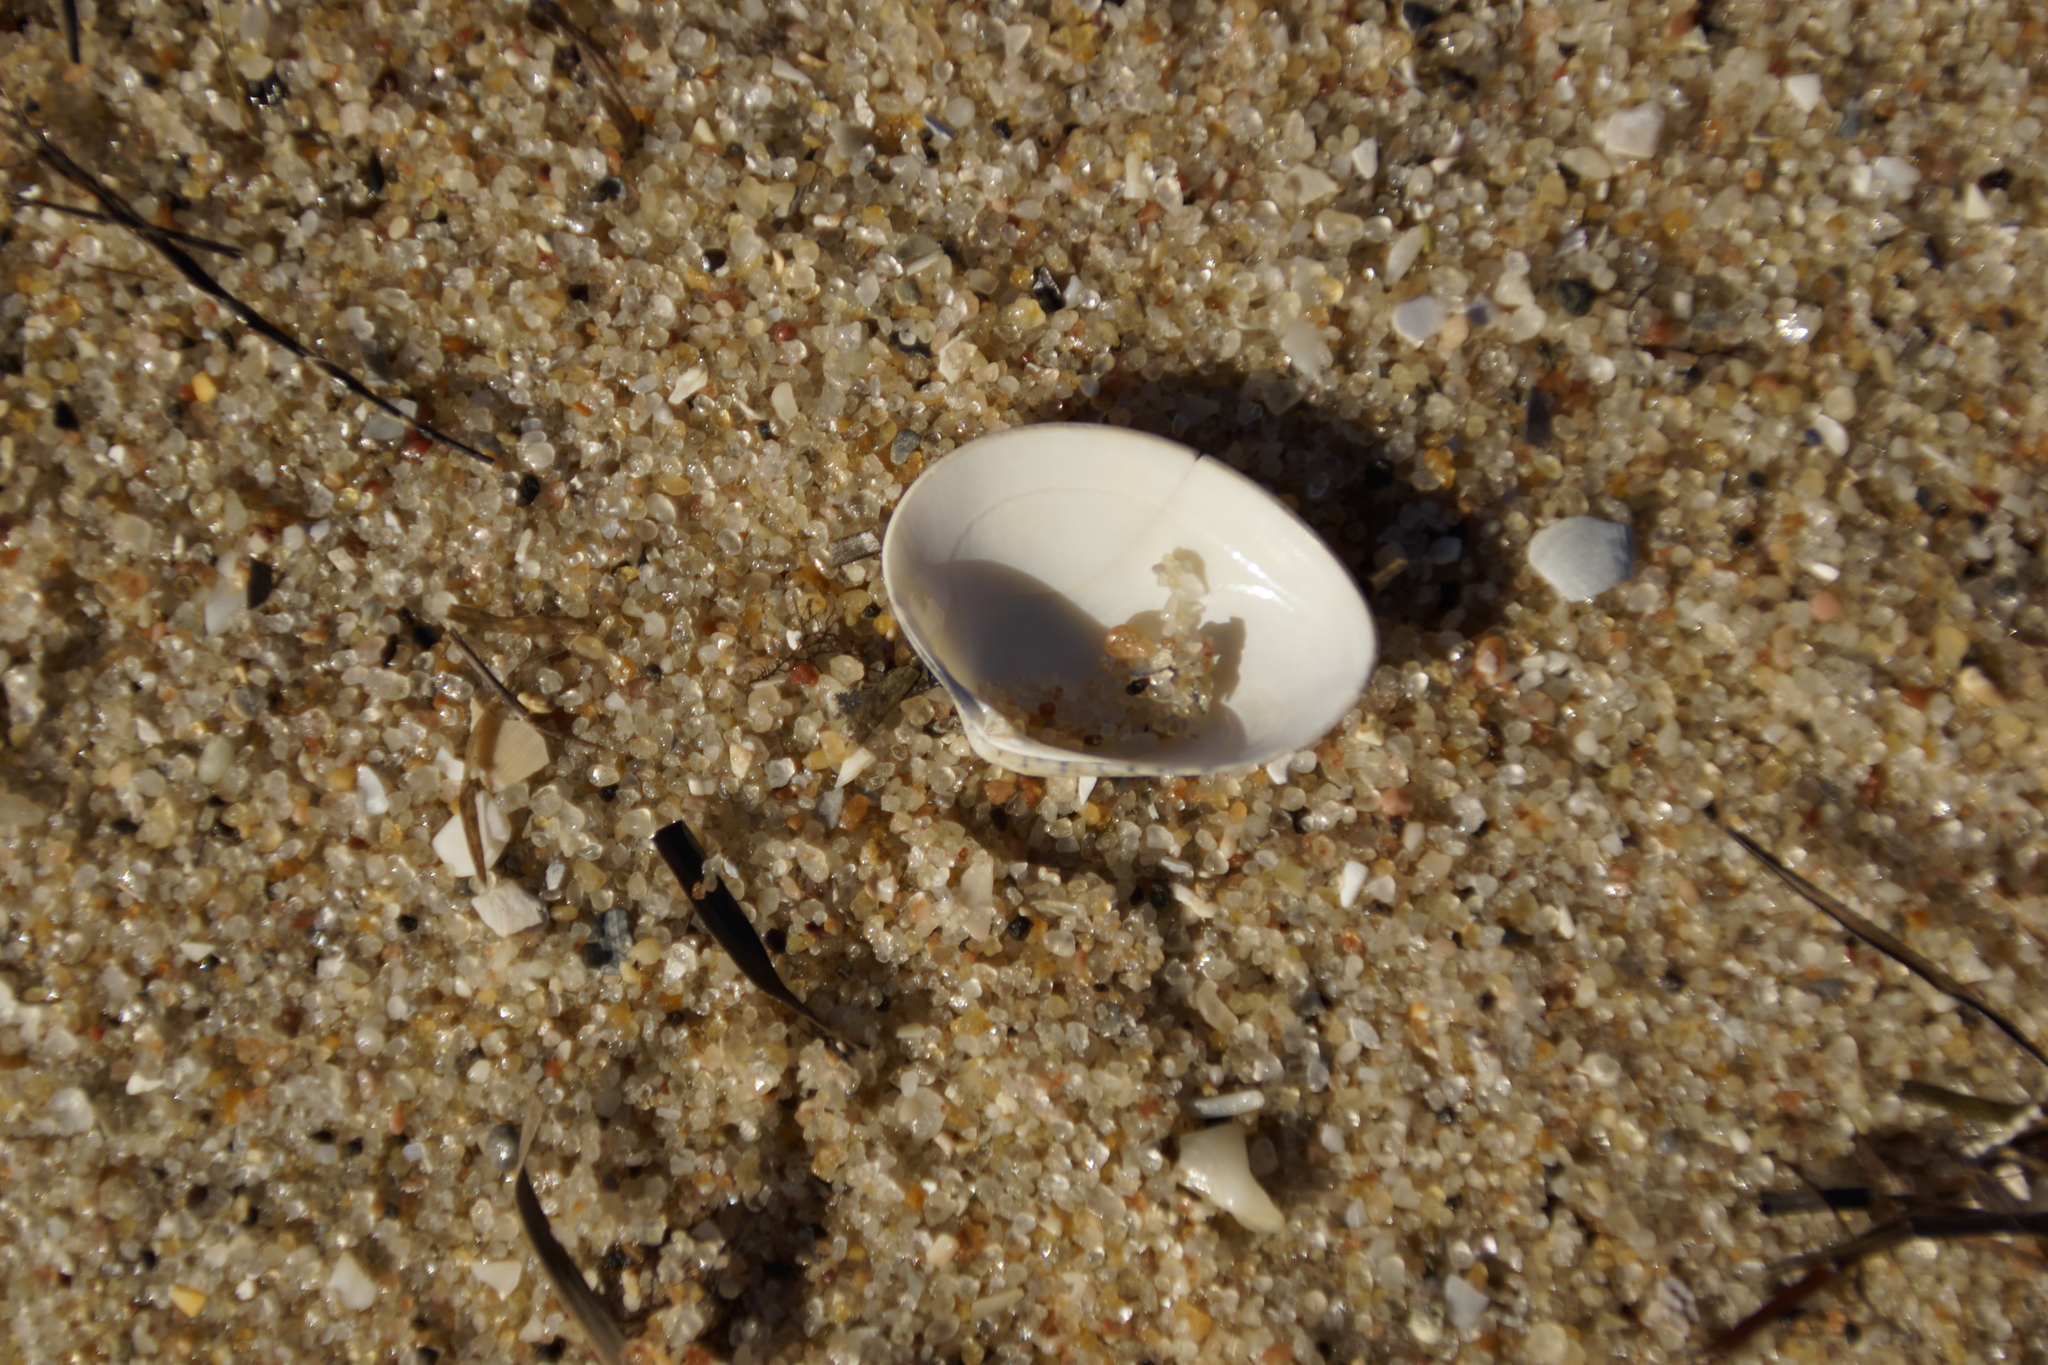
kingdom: Animalia
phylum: Mollusca
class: Bivalvia
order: Venerida
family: Veneridae
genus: Eumarcia
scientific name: Eumarcia fumigata
